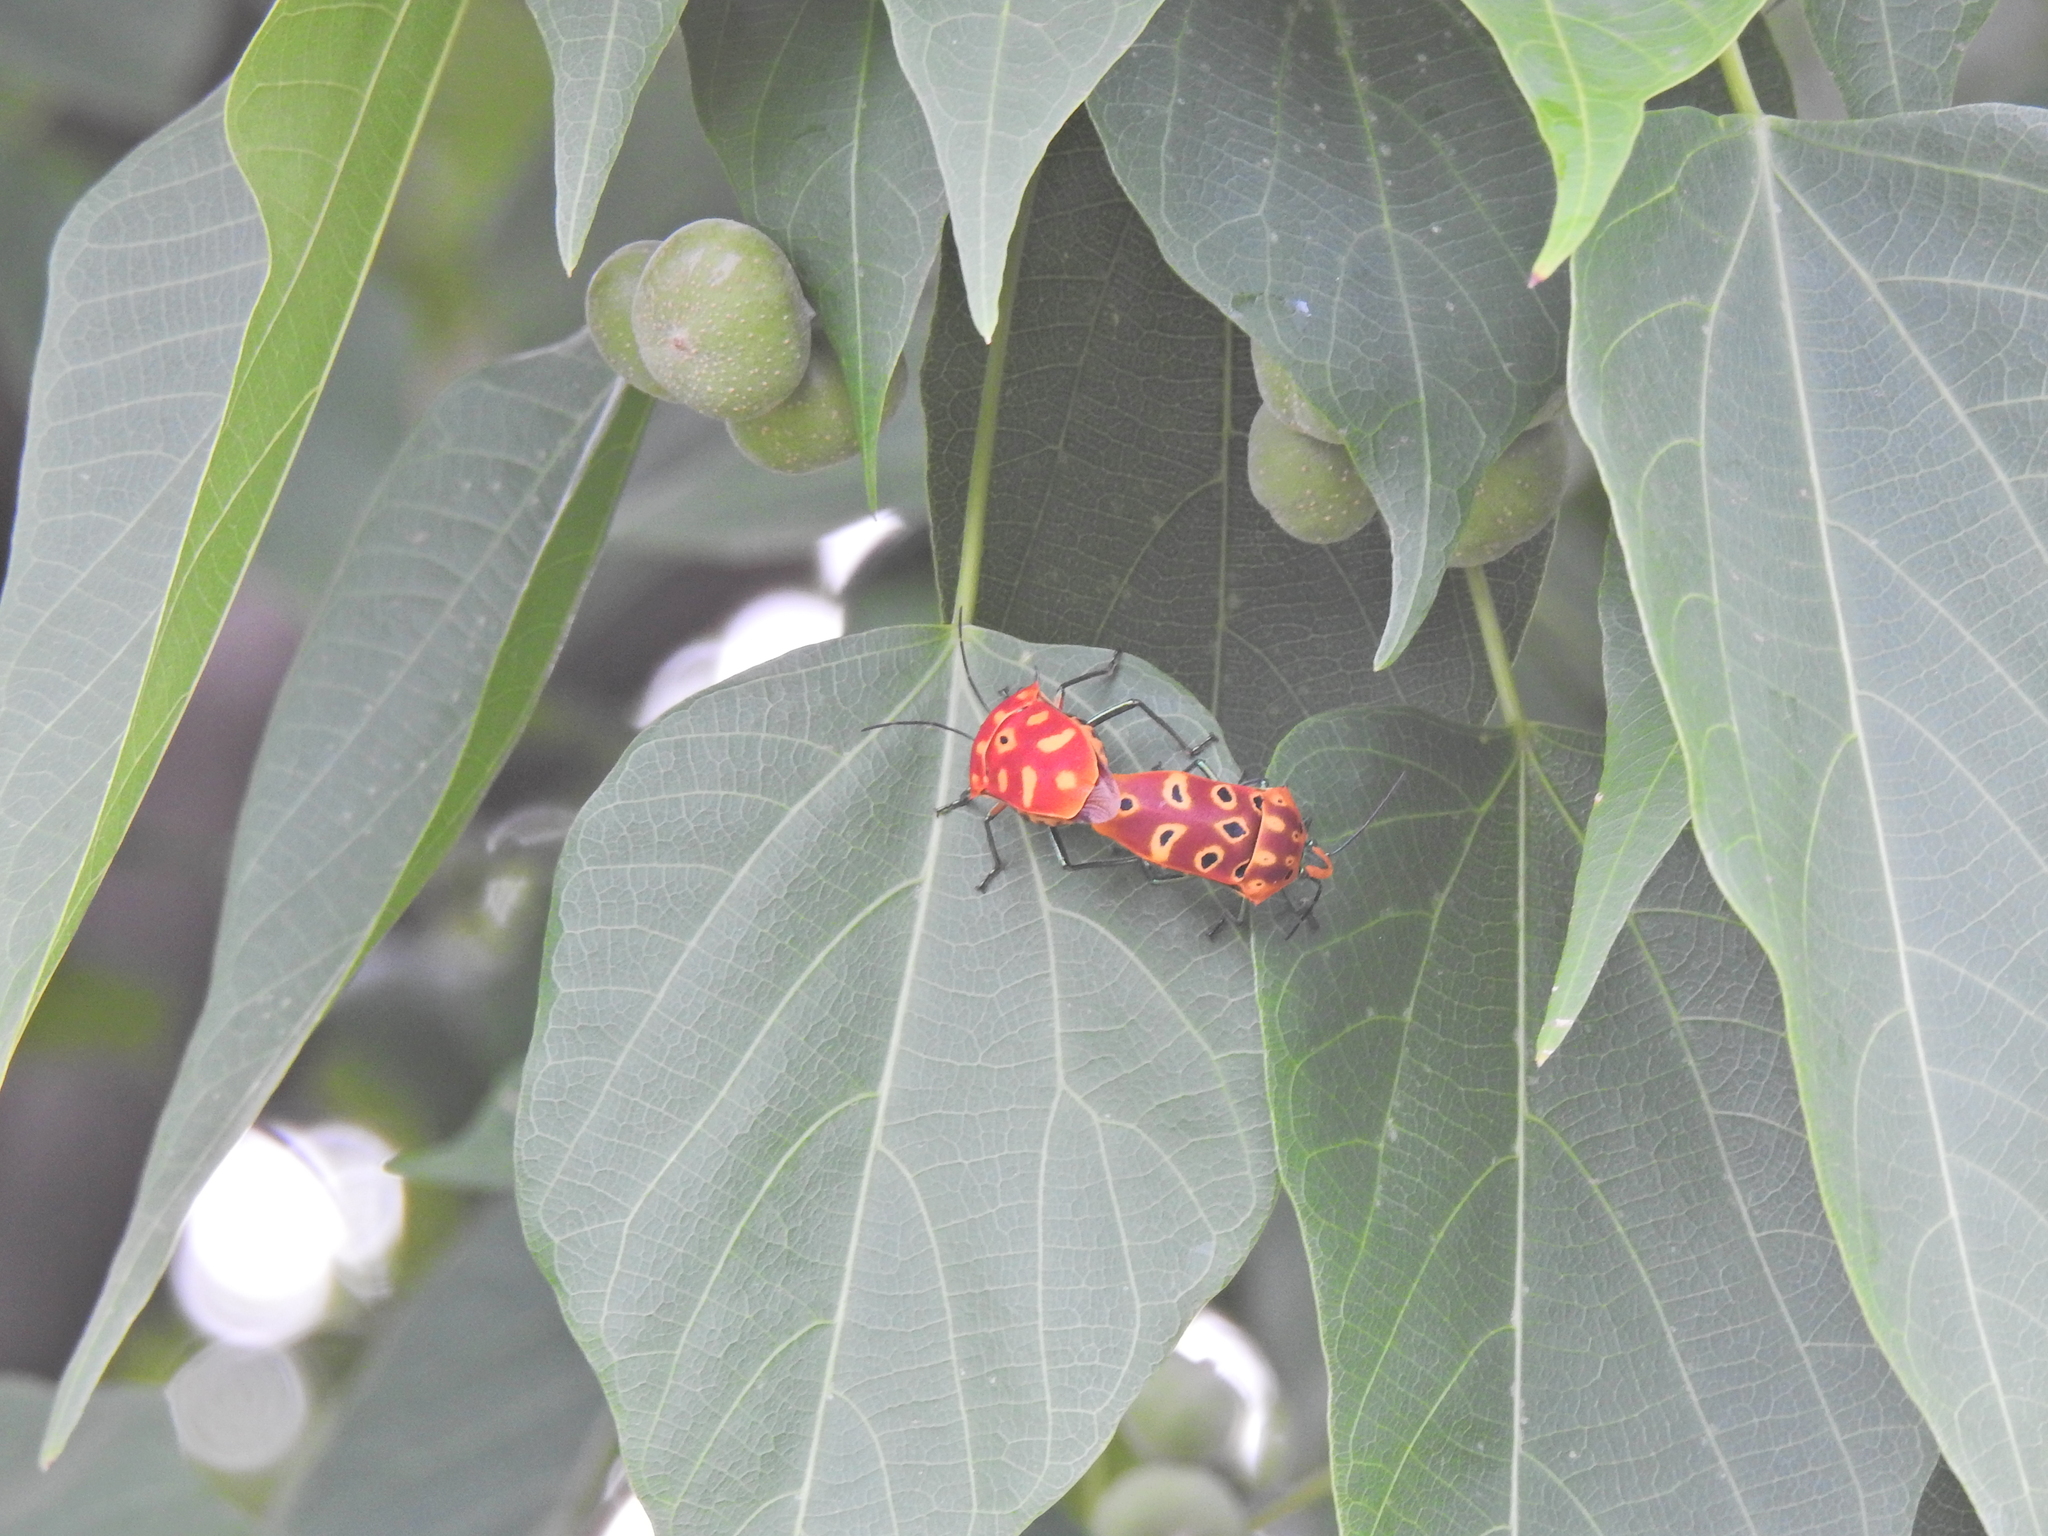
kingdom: Animalia
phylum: Arthropoda
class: Insecta
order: Hemiptera
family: Scutelleridae
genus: Cantao
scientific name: Cantao ocellatus
